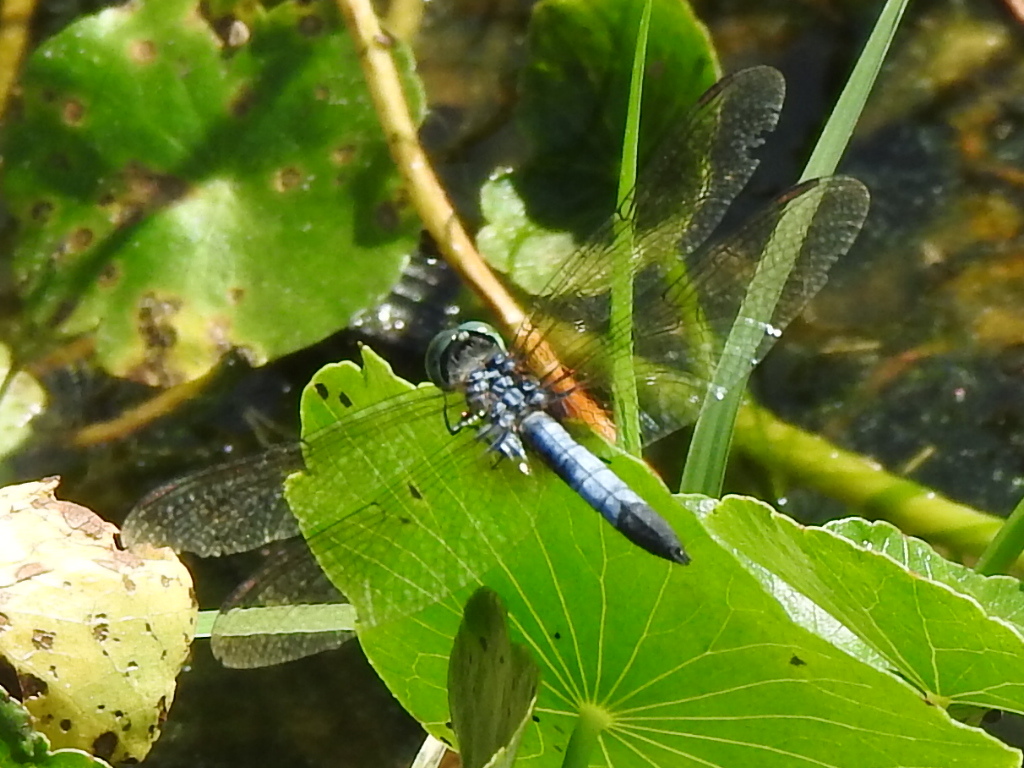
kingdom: Animalia
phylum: Arthropoda
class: Insecta
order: Odonata
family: Libellulidae
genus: Pachydiplax
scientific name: Pachydiplax longipennis
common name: Blue dasher
